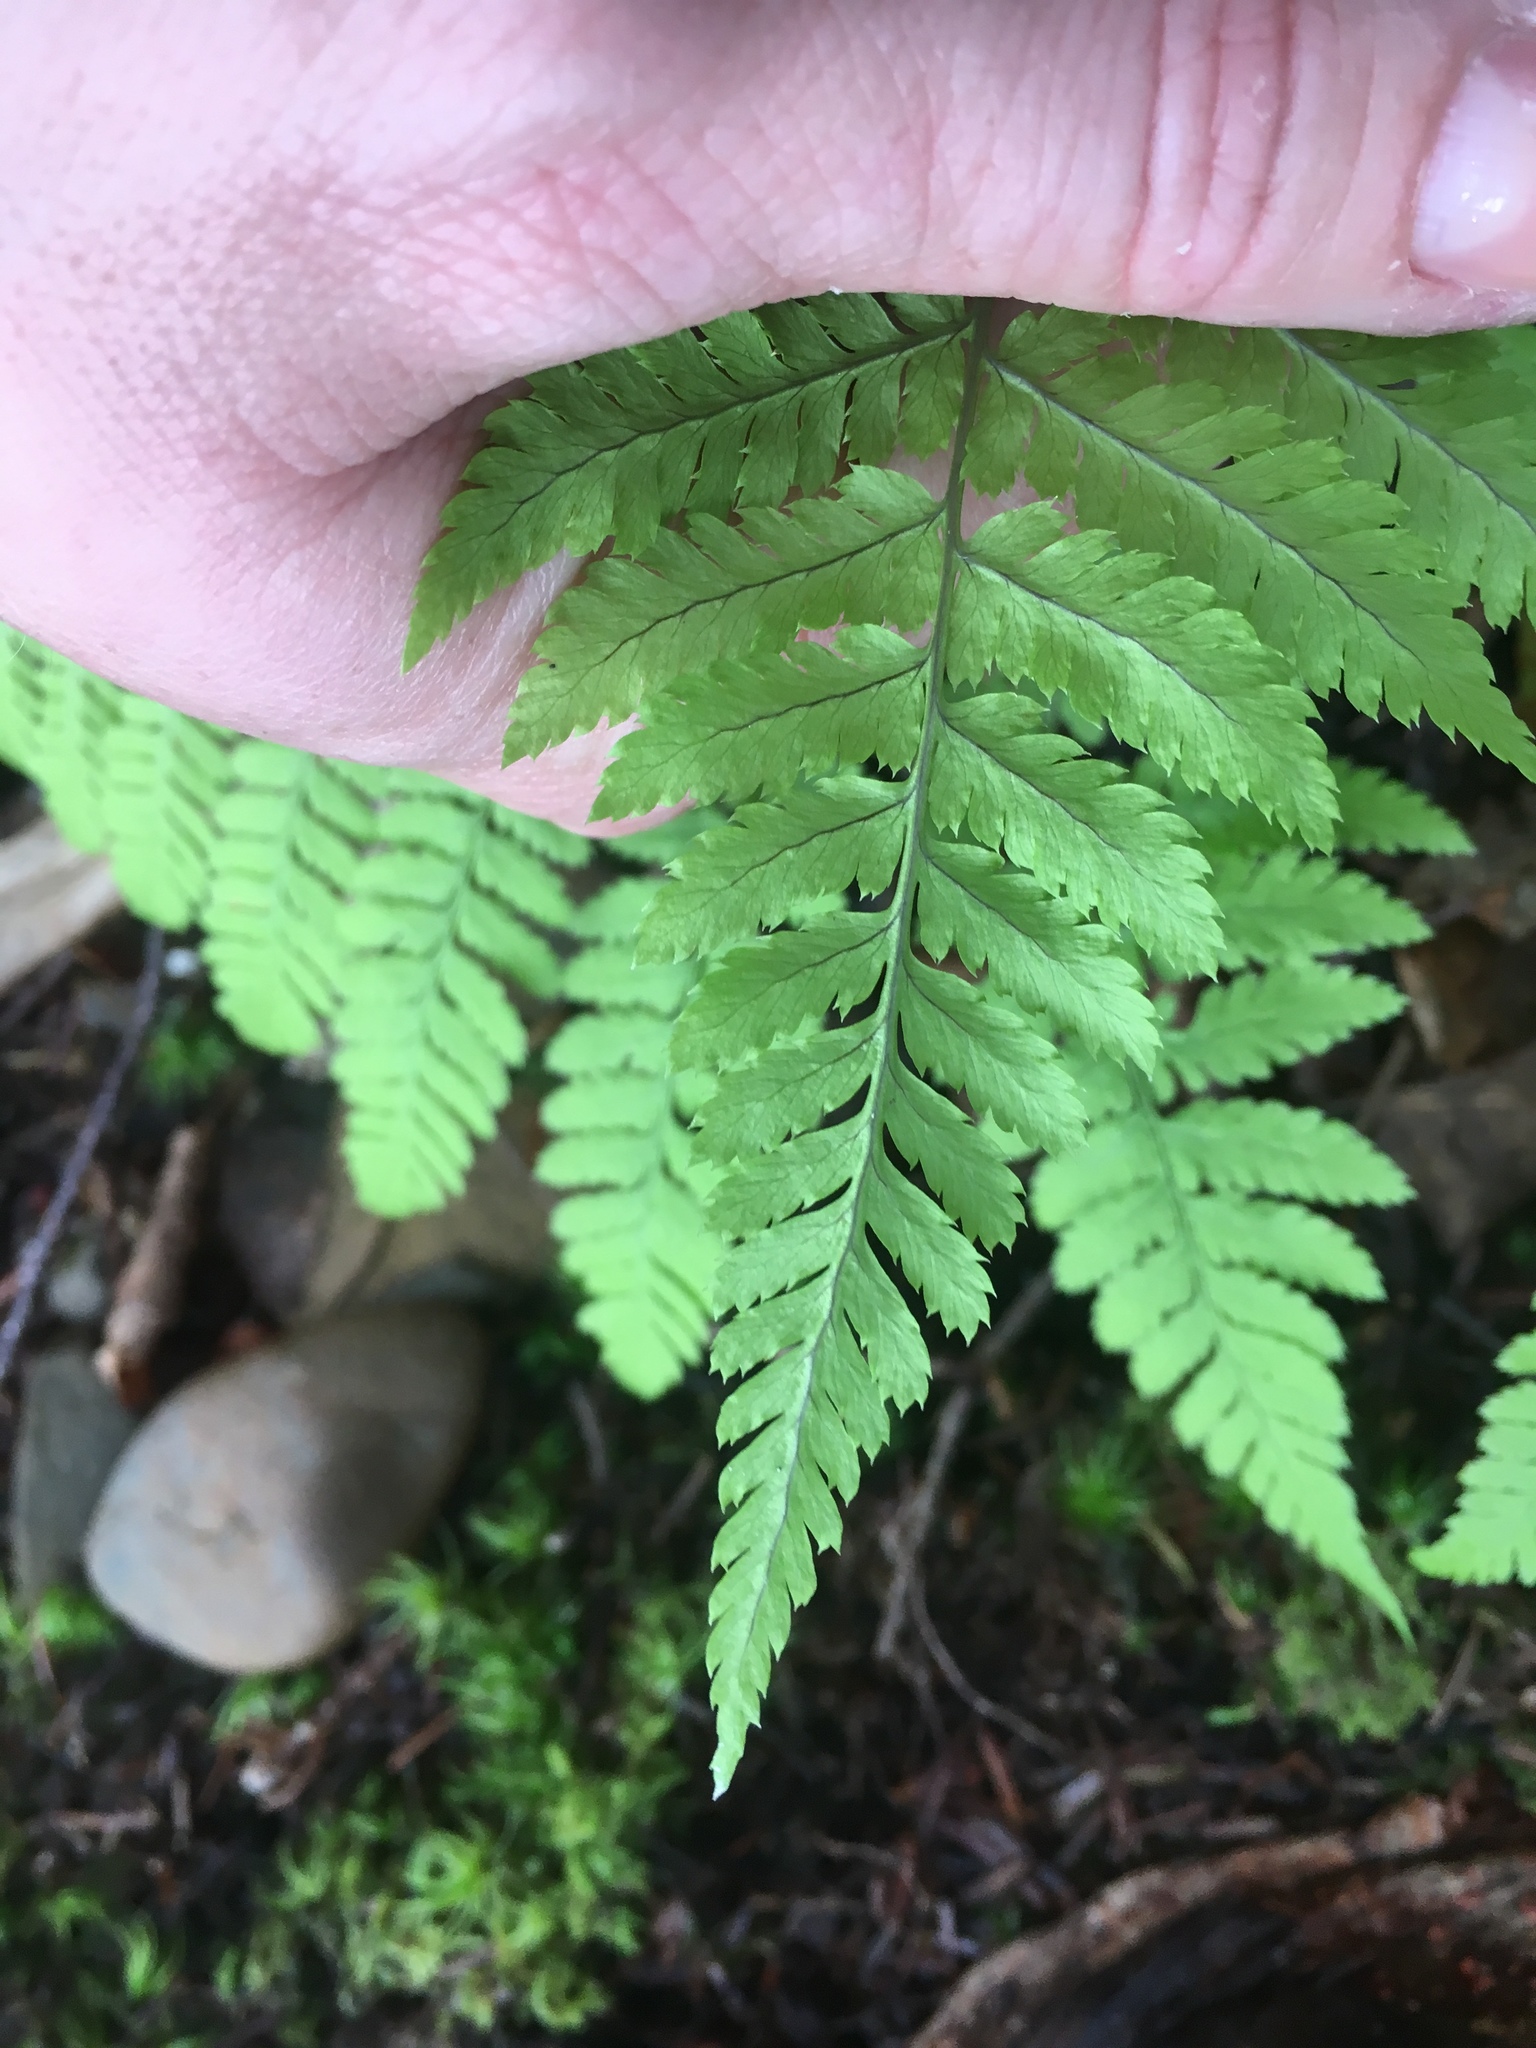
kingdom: Plantae
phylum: Tracheophyta
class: Polypodiopsida
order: Polypodiales
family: Dryopteridaceae
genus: Dryopteris
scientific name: Dryopteris campyloptera
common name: Mountain wood fern
